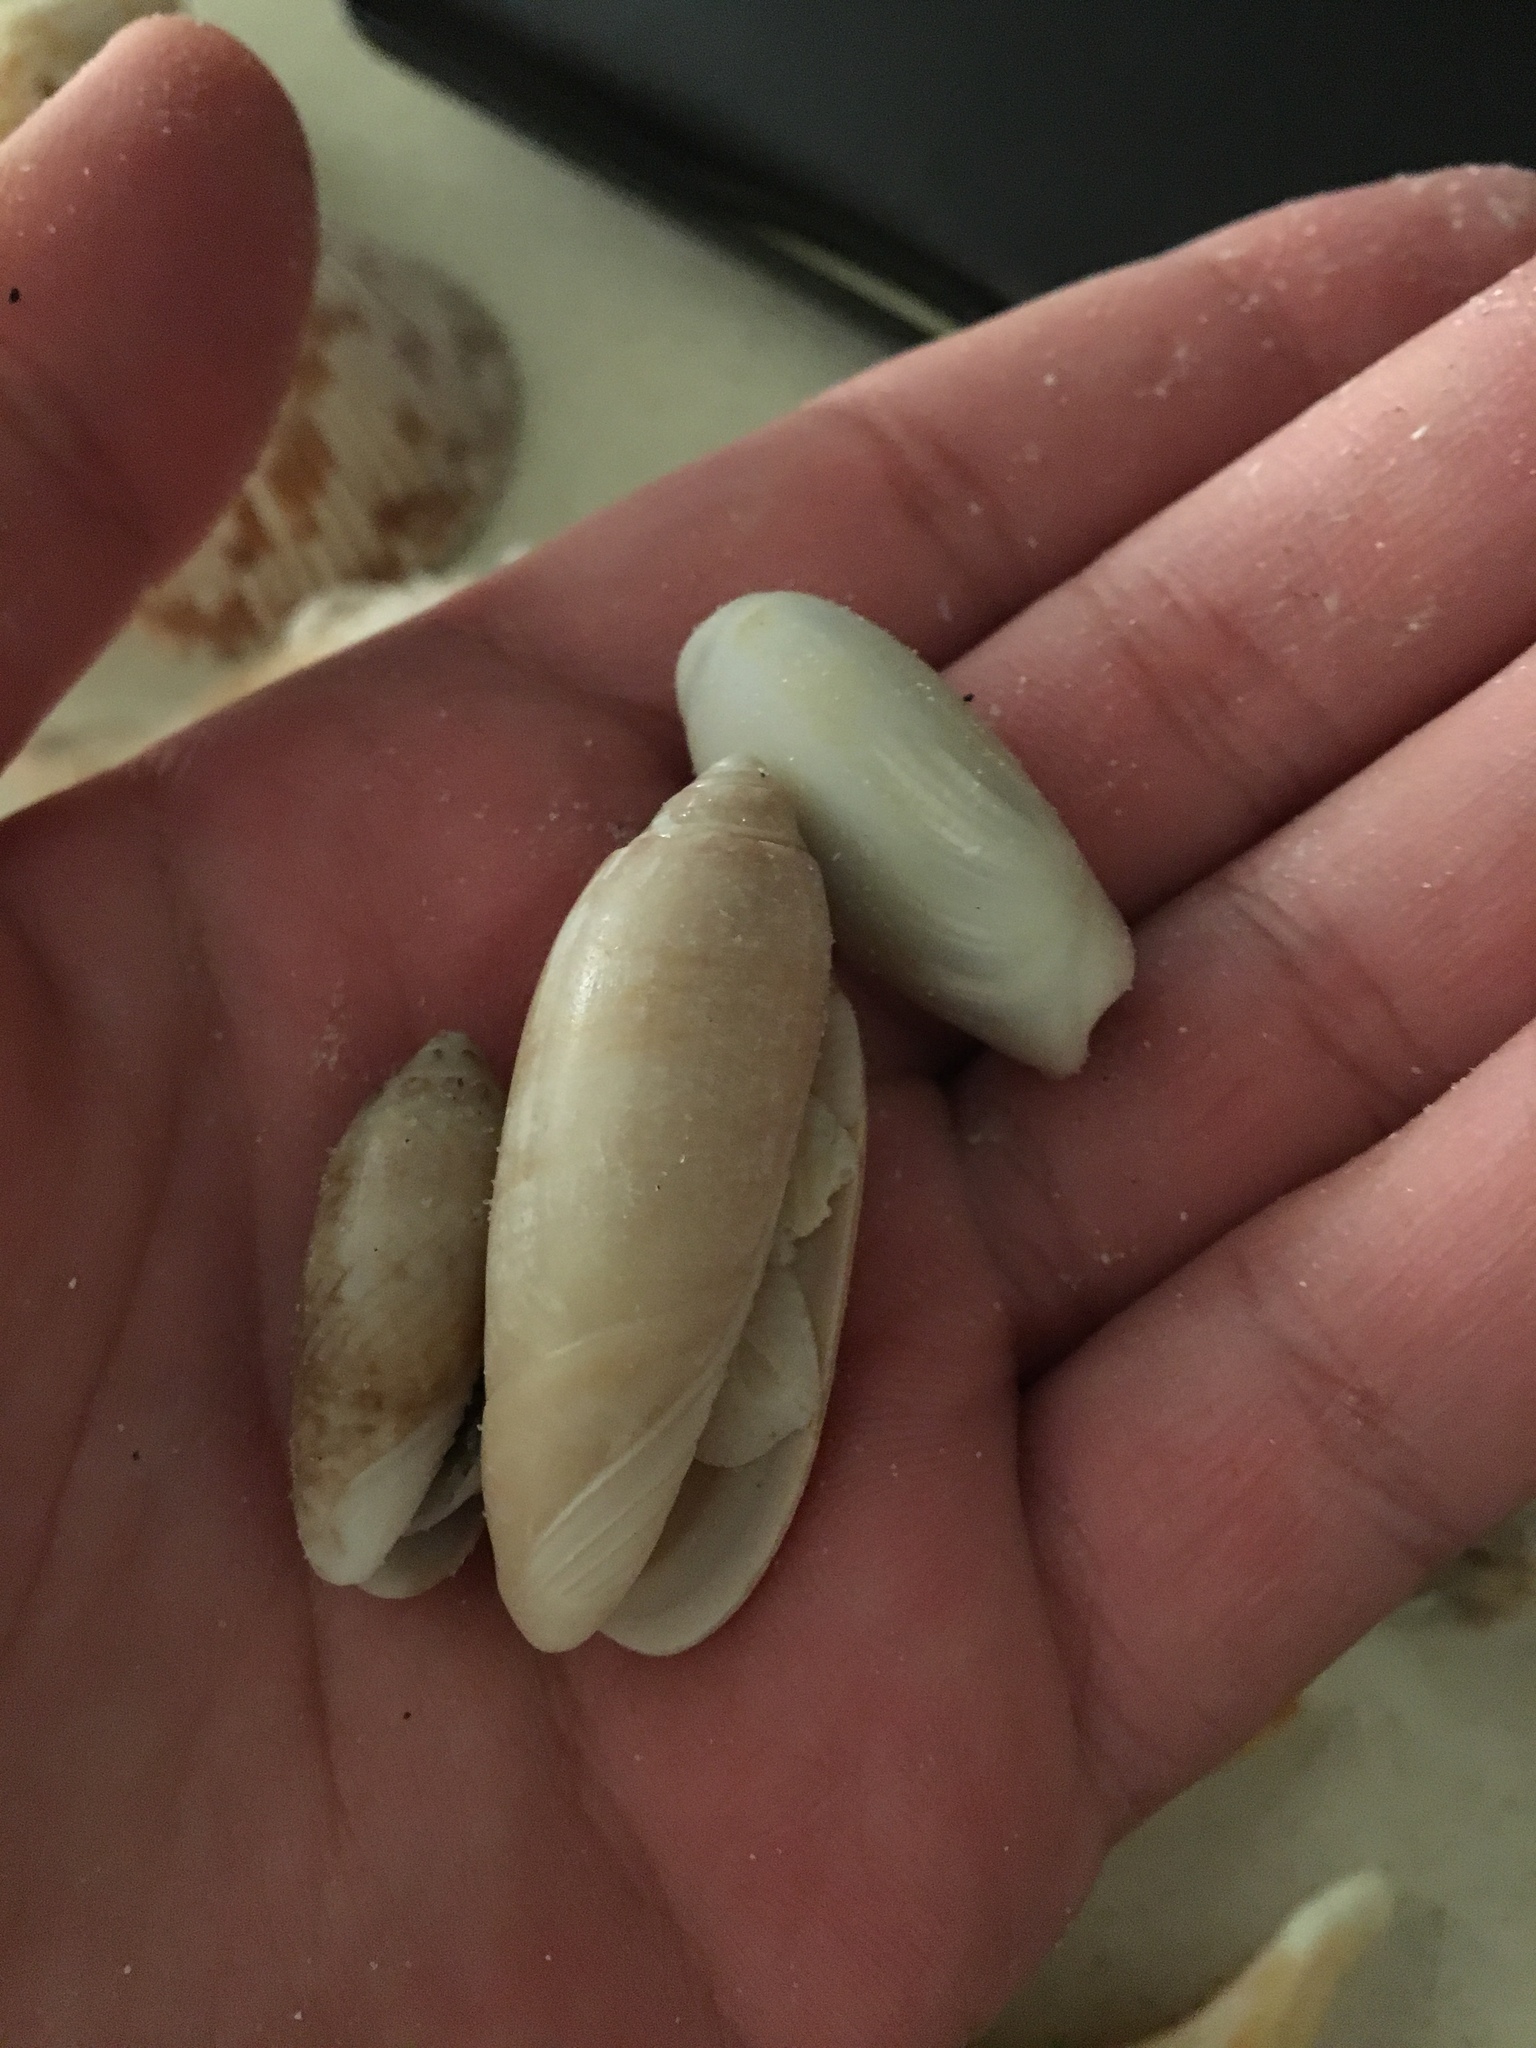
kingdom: Animalia
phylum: Mollusca
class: Gastropoda
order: Neogastropoda
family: Olividae
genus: Oliva
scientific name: Oliva sayana
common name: Lettered olive
